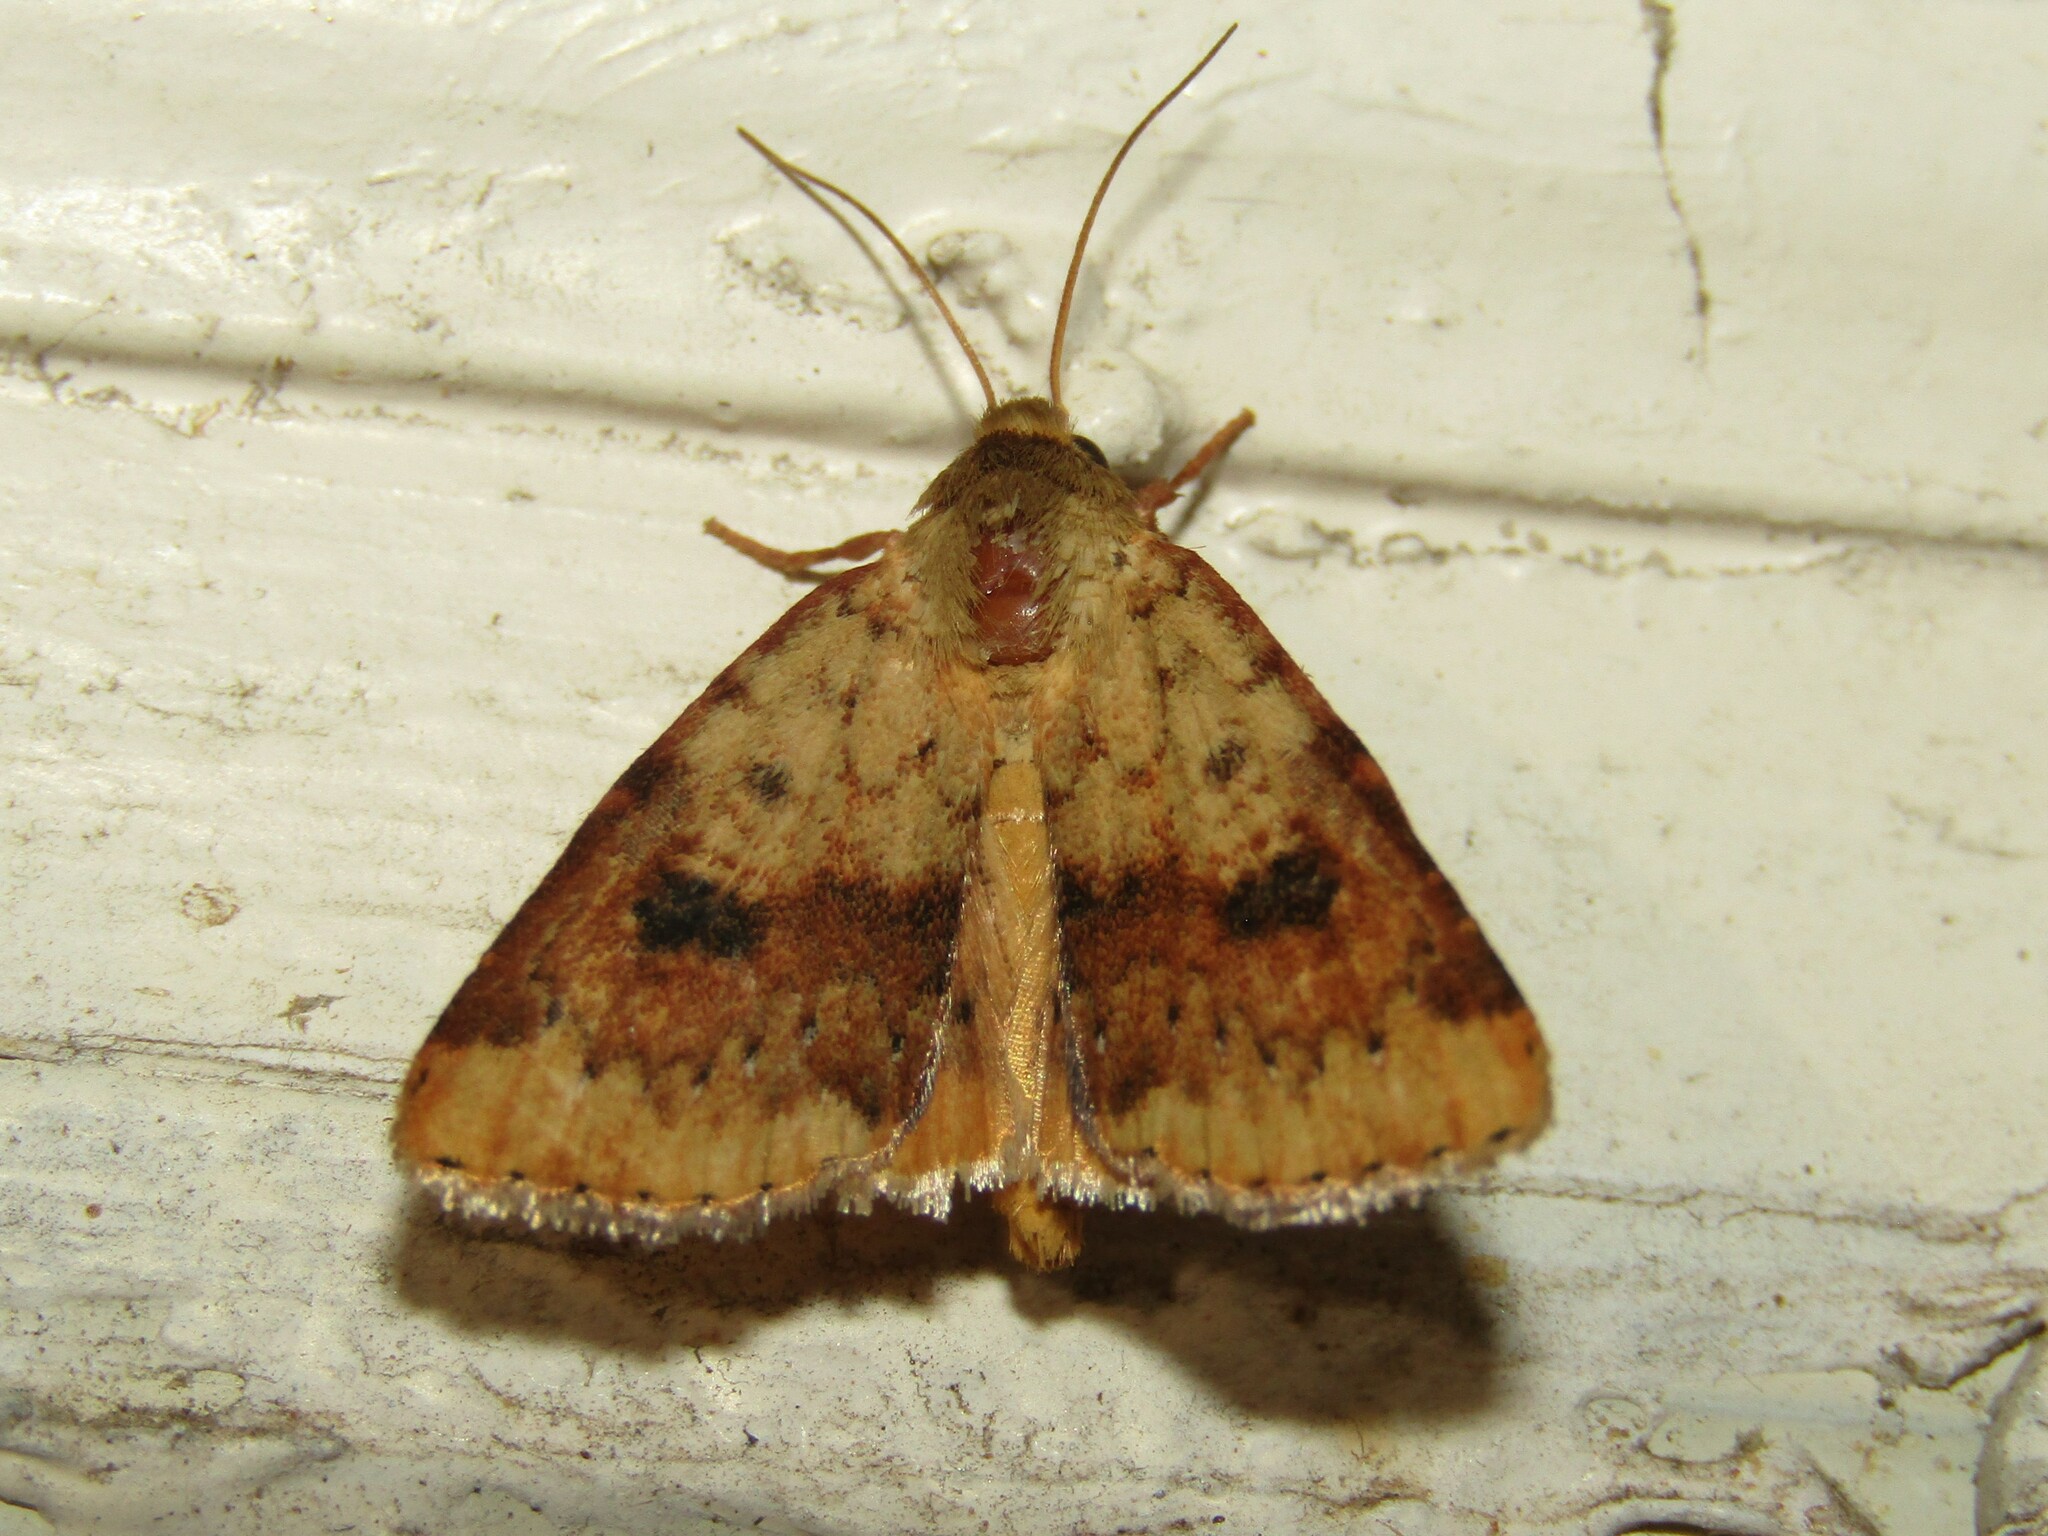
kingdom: Animalia
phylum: Arthropoda
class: Insecta
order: Lepidoptera
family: Noctuidae
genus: Heliocheilus
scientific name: Heliocheilus lupata
